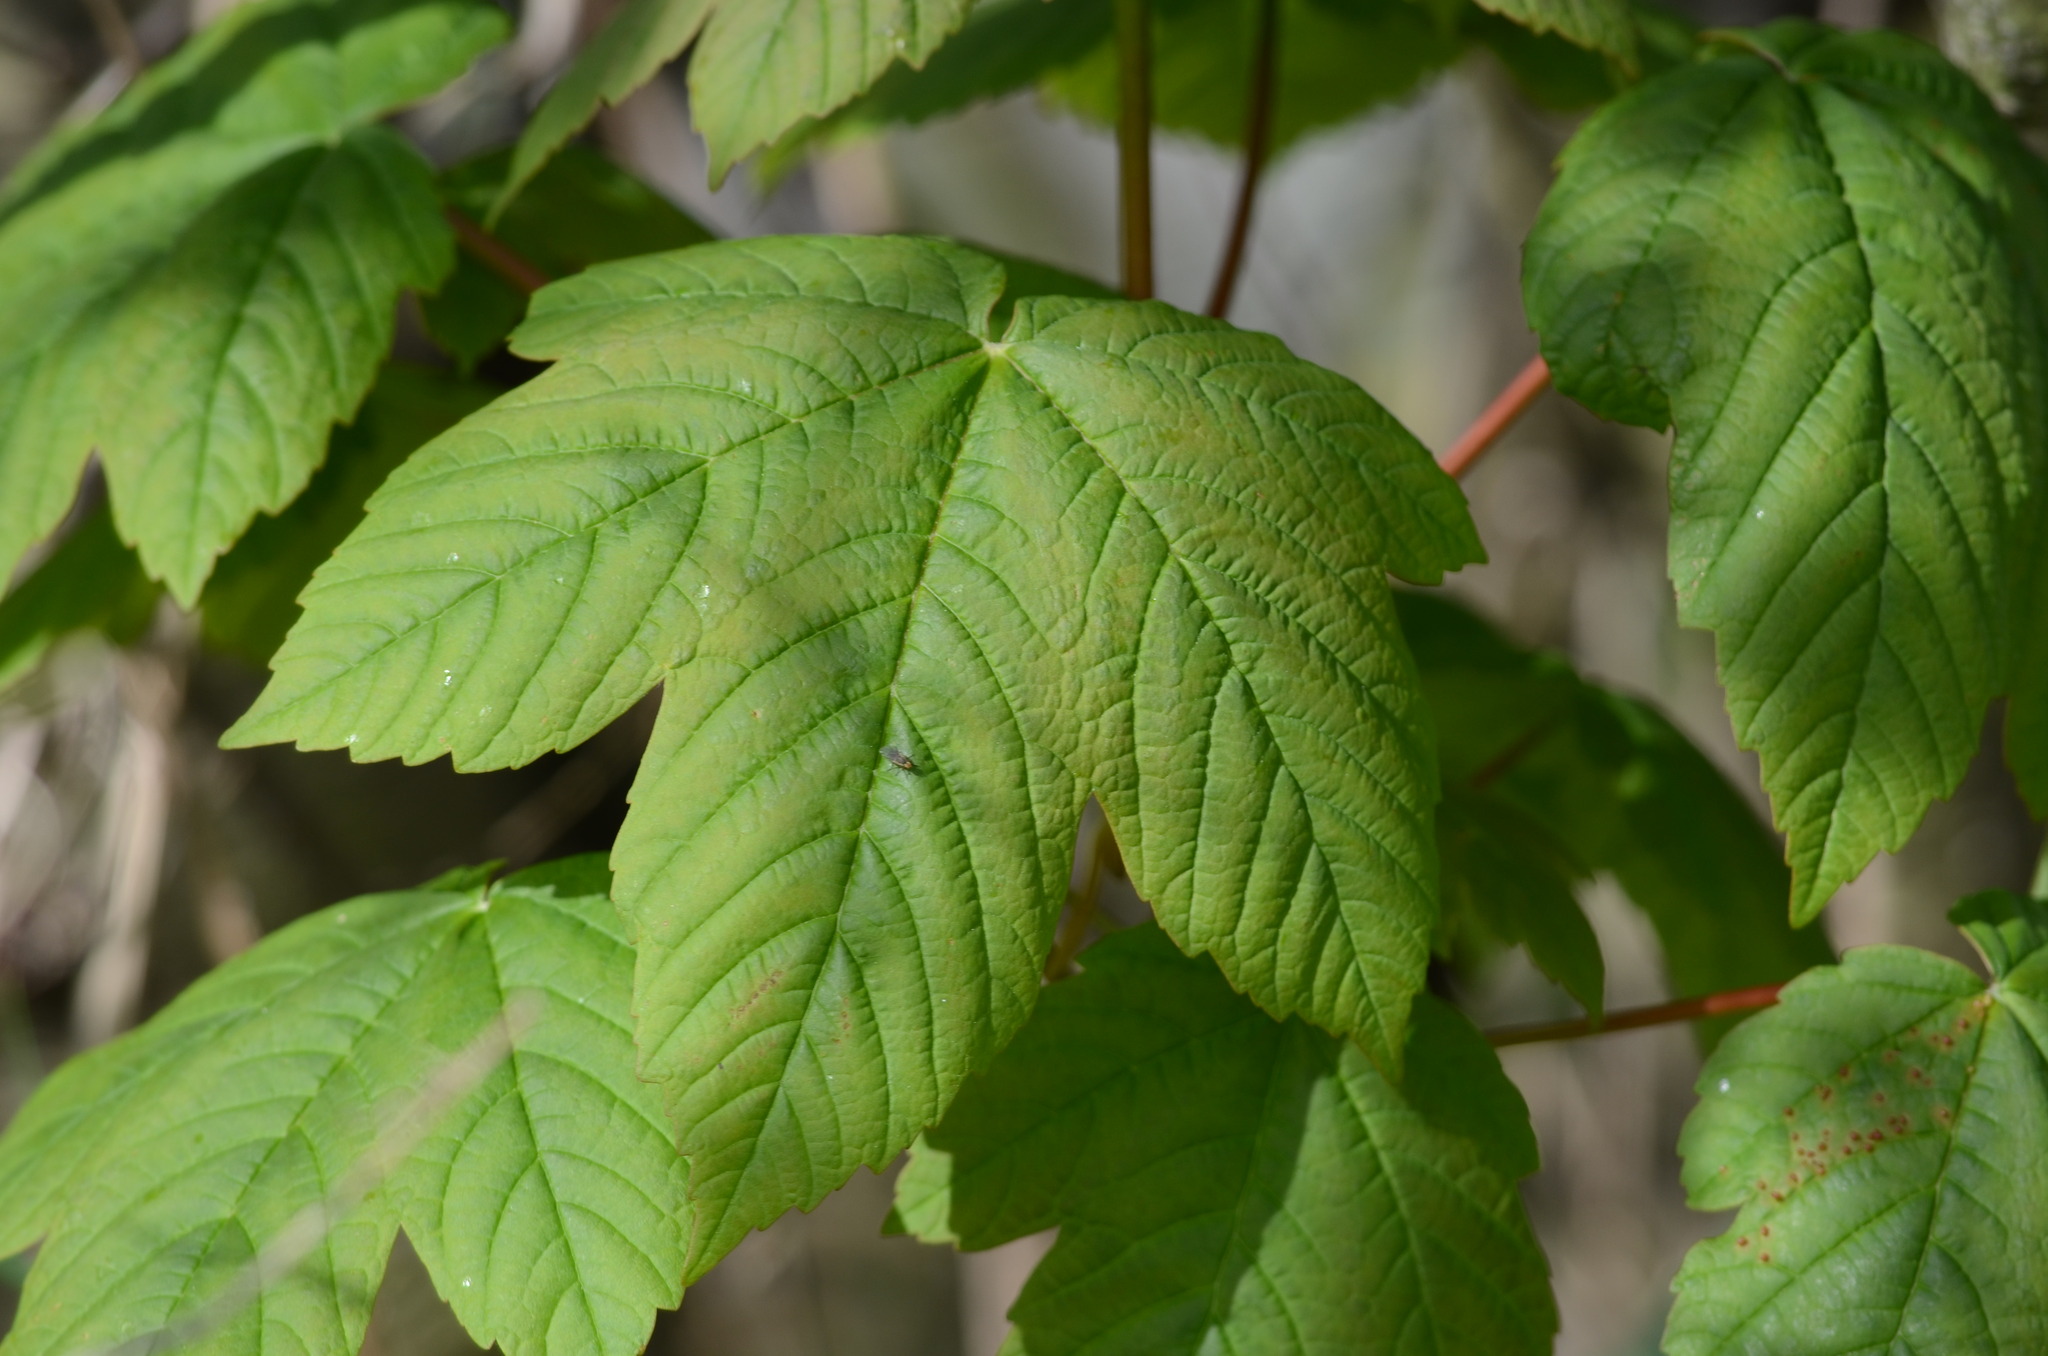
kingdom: Plantae
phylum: Tracheophyta
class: Magnoliopsida
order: Sapindales
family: Sapindaceae
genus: Acer
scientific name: Acer pseudoplatanus
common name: Sycamore
